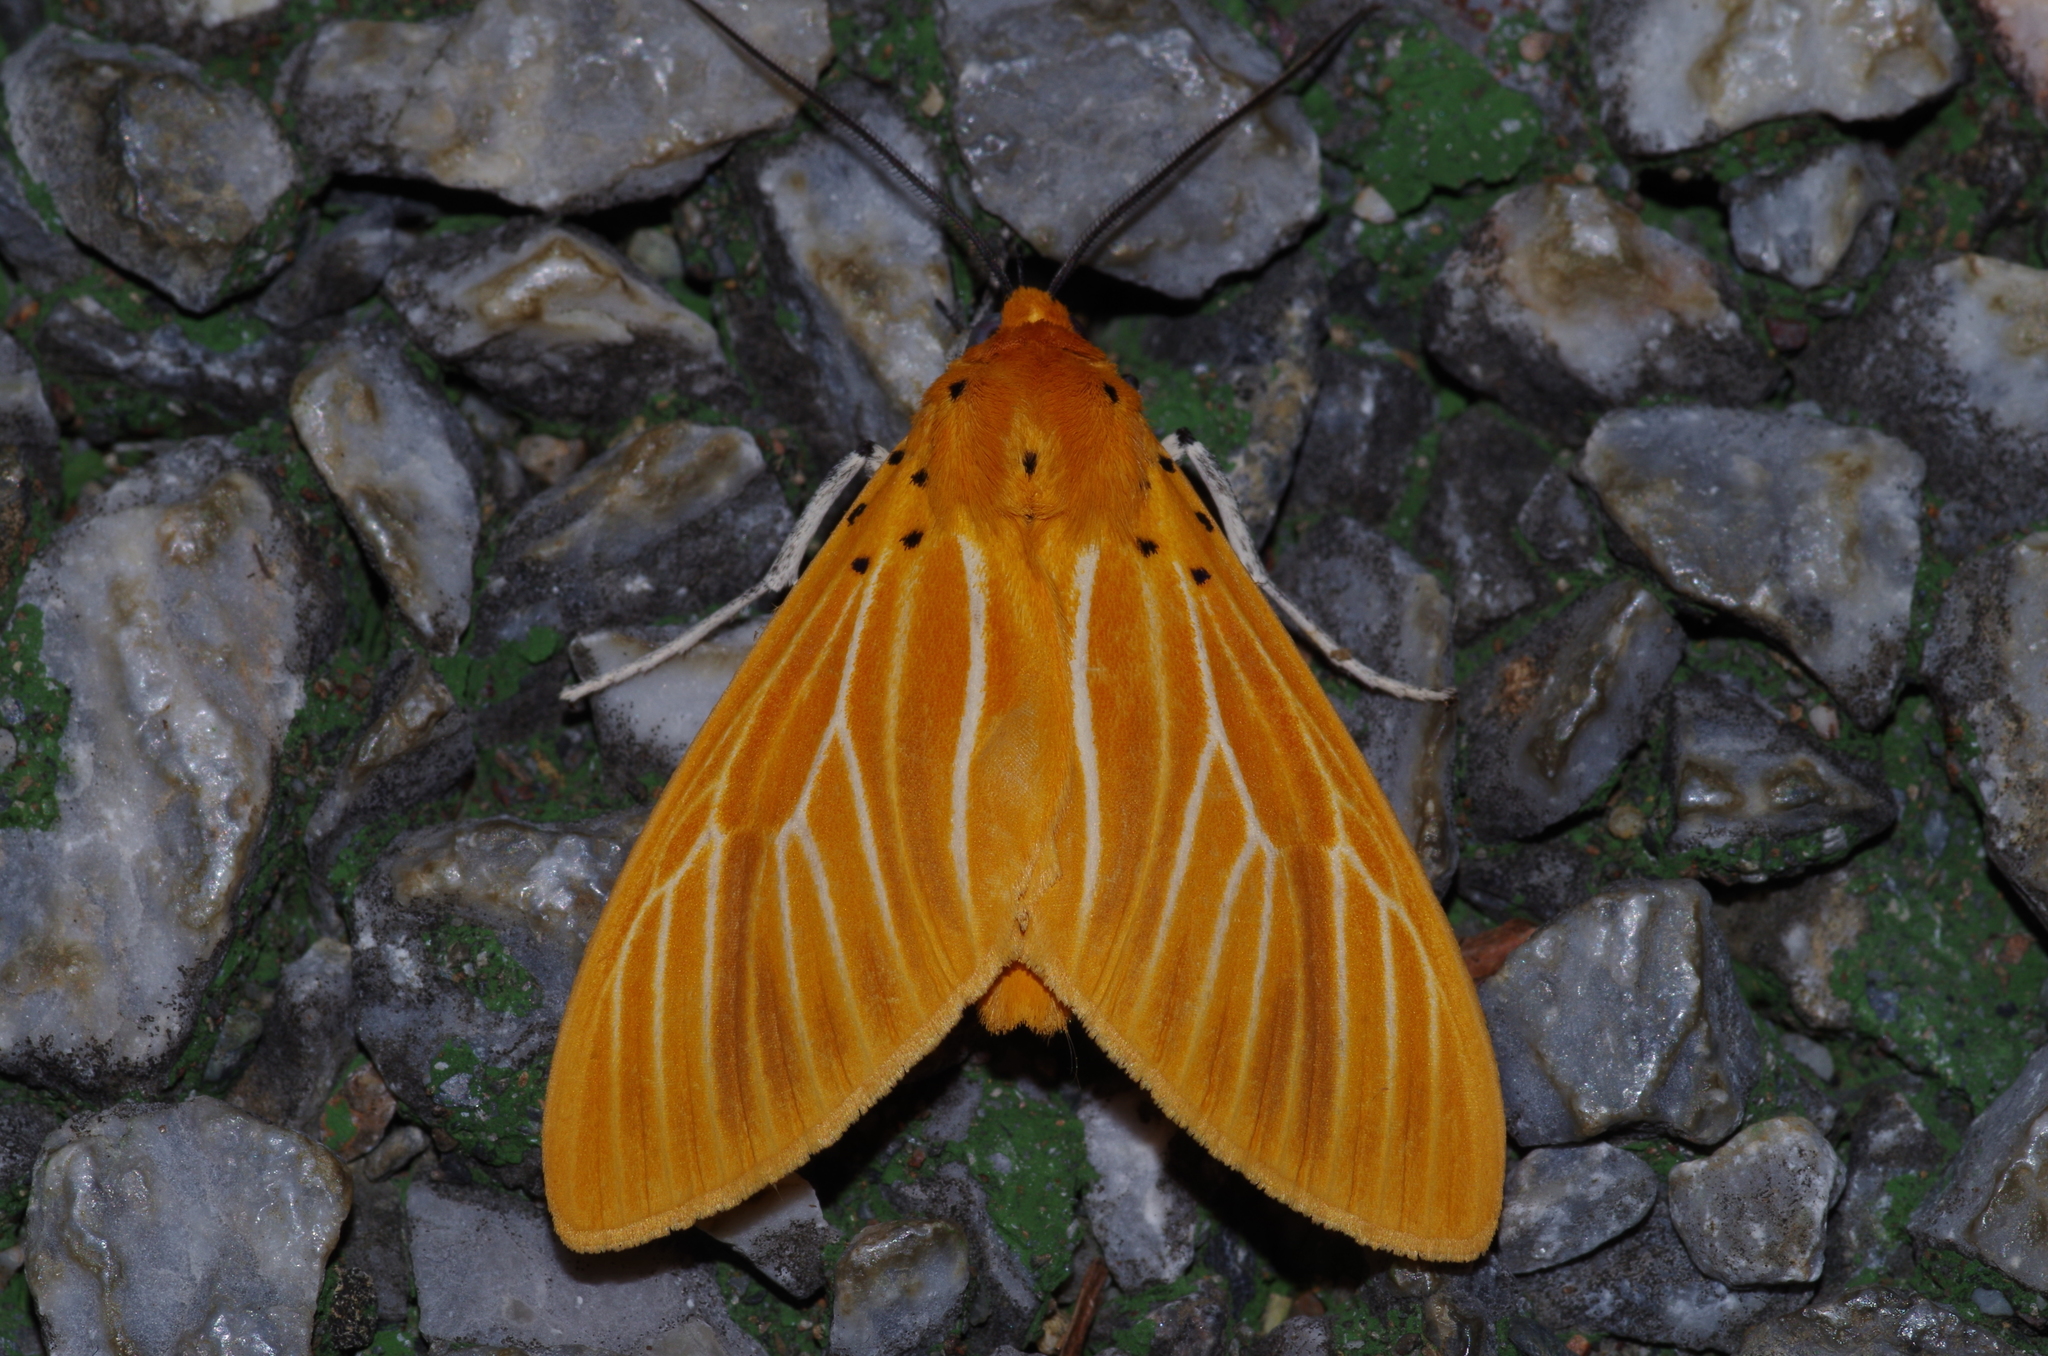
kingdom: Animalia
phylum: Arthropoda
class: Insecta
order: Lepidoptera
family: Erebidae
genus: Asota
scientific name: Asota egens
